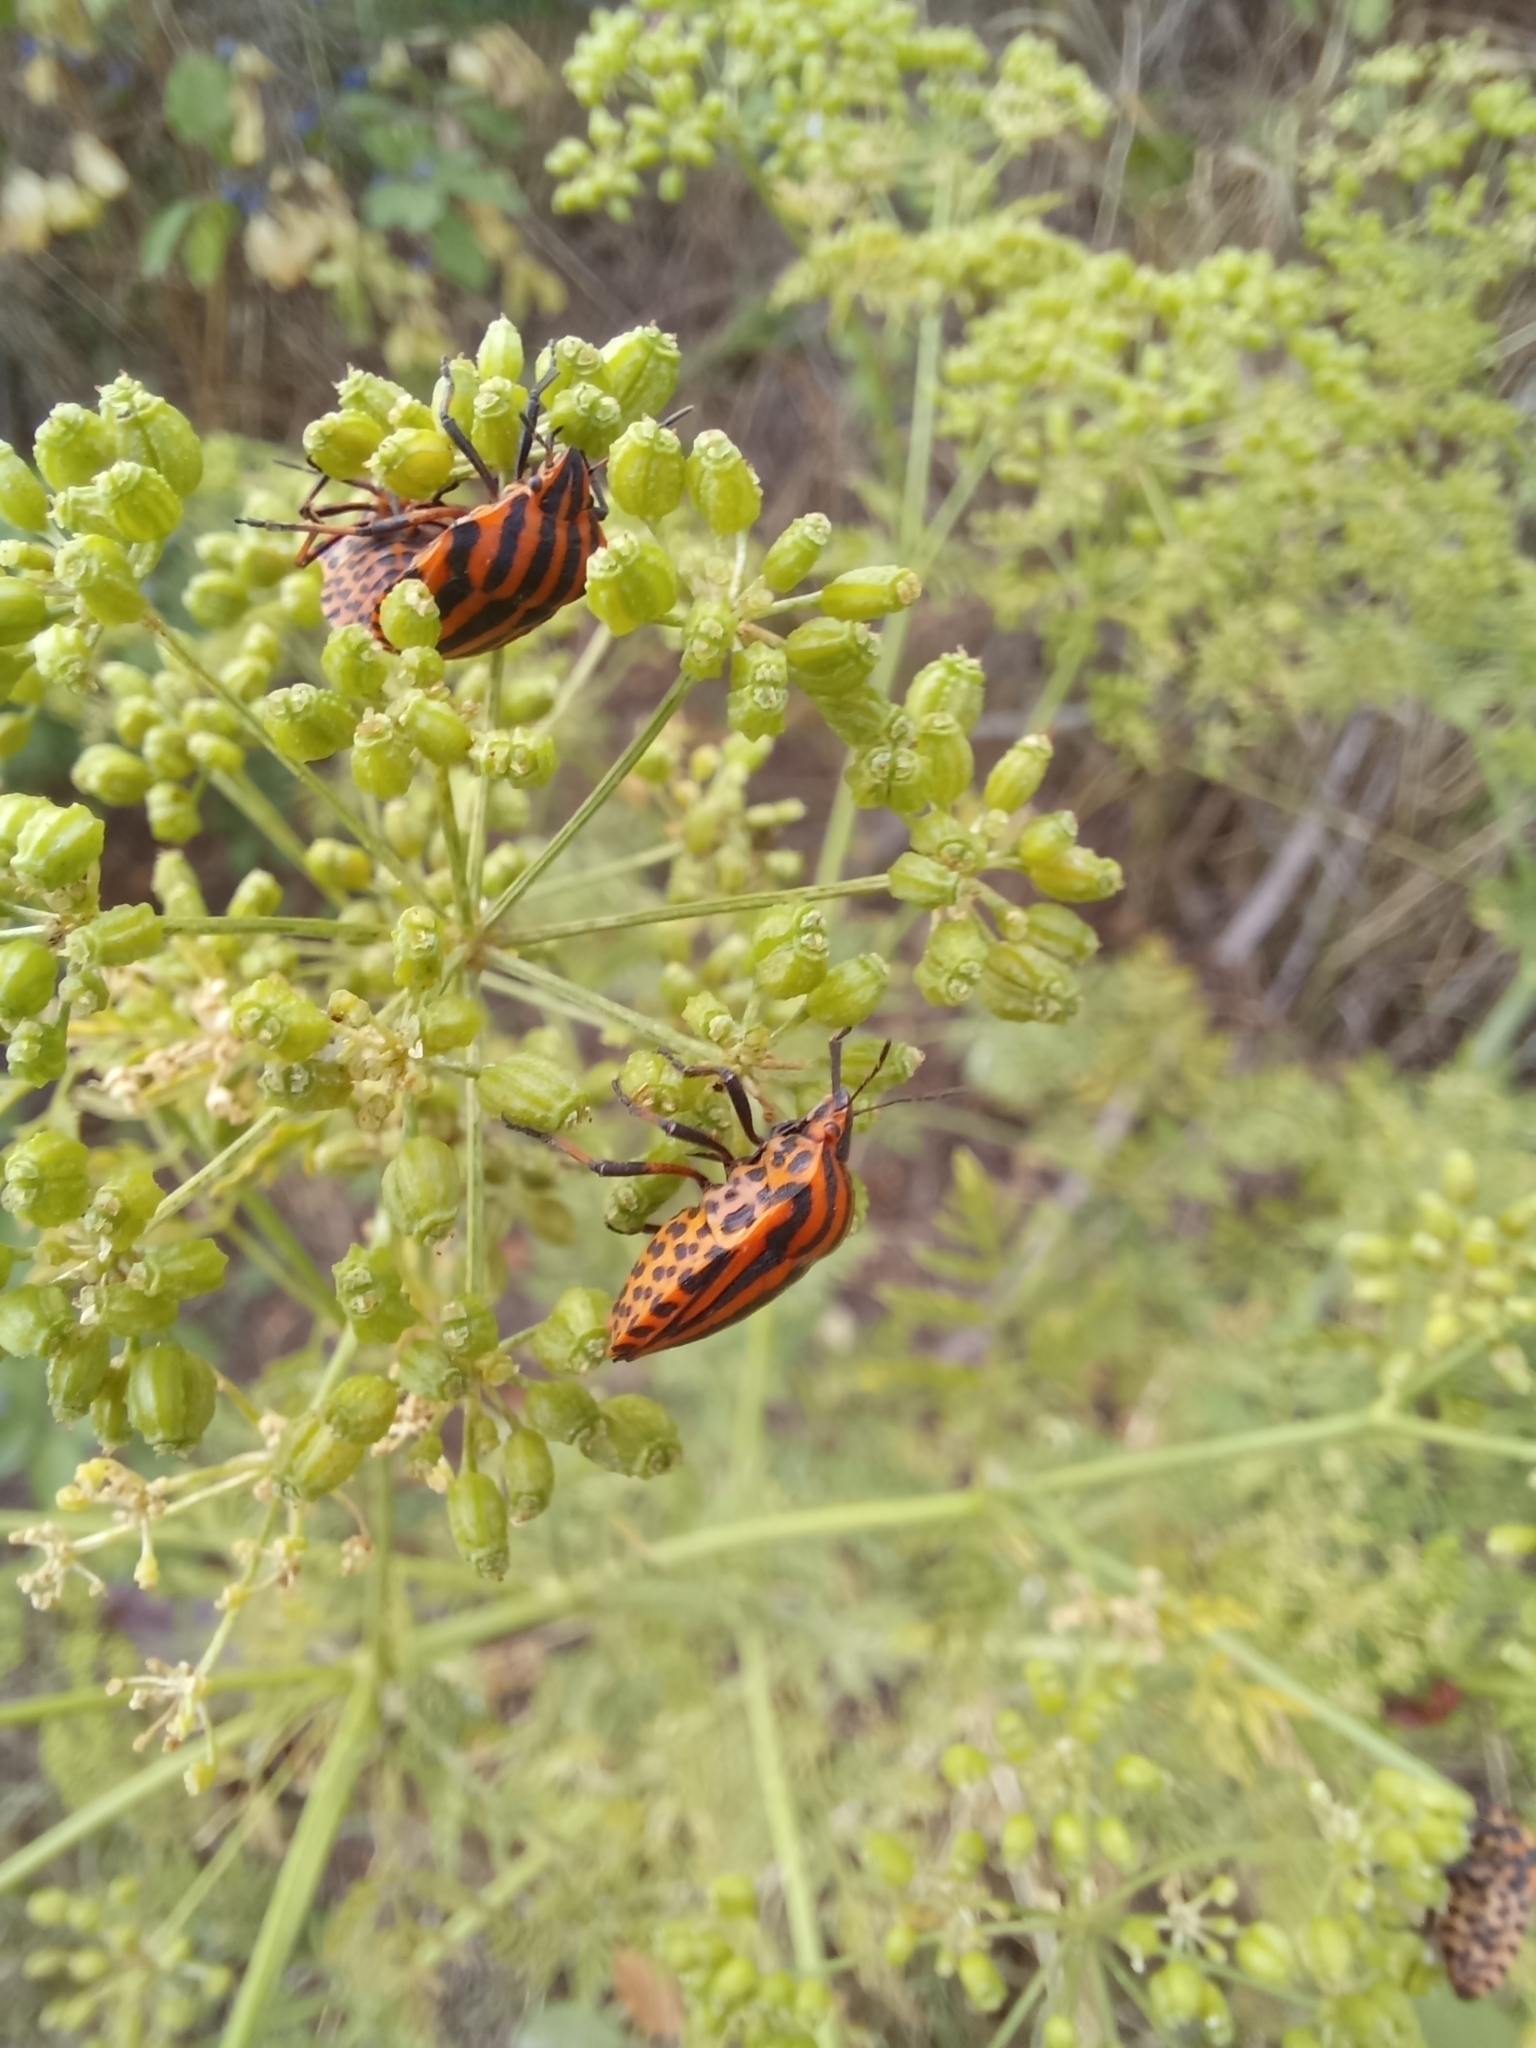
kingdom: Animalia
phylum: Arthropoda
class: Insecta
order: Hemiptera
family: Pentatomidae
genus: Graphosoma
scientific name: Graphosoma italicum
